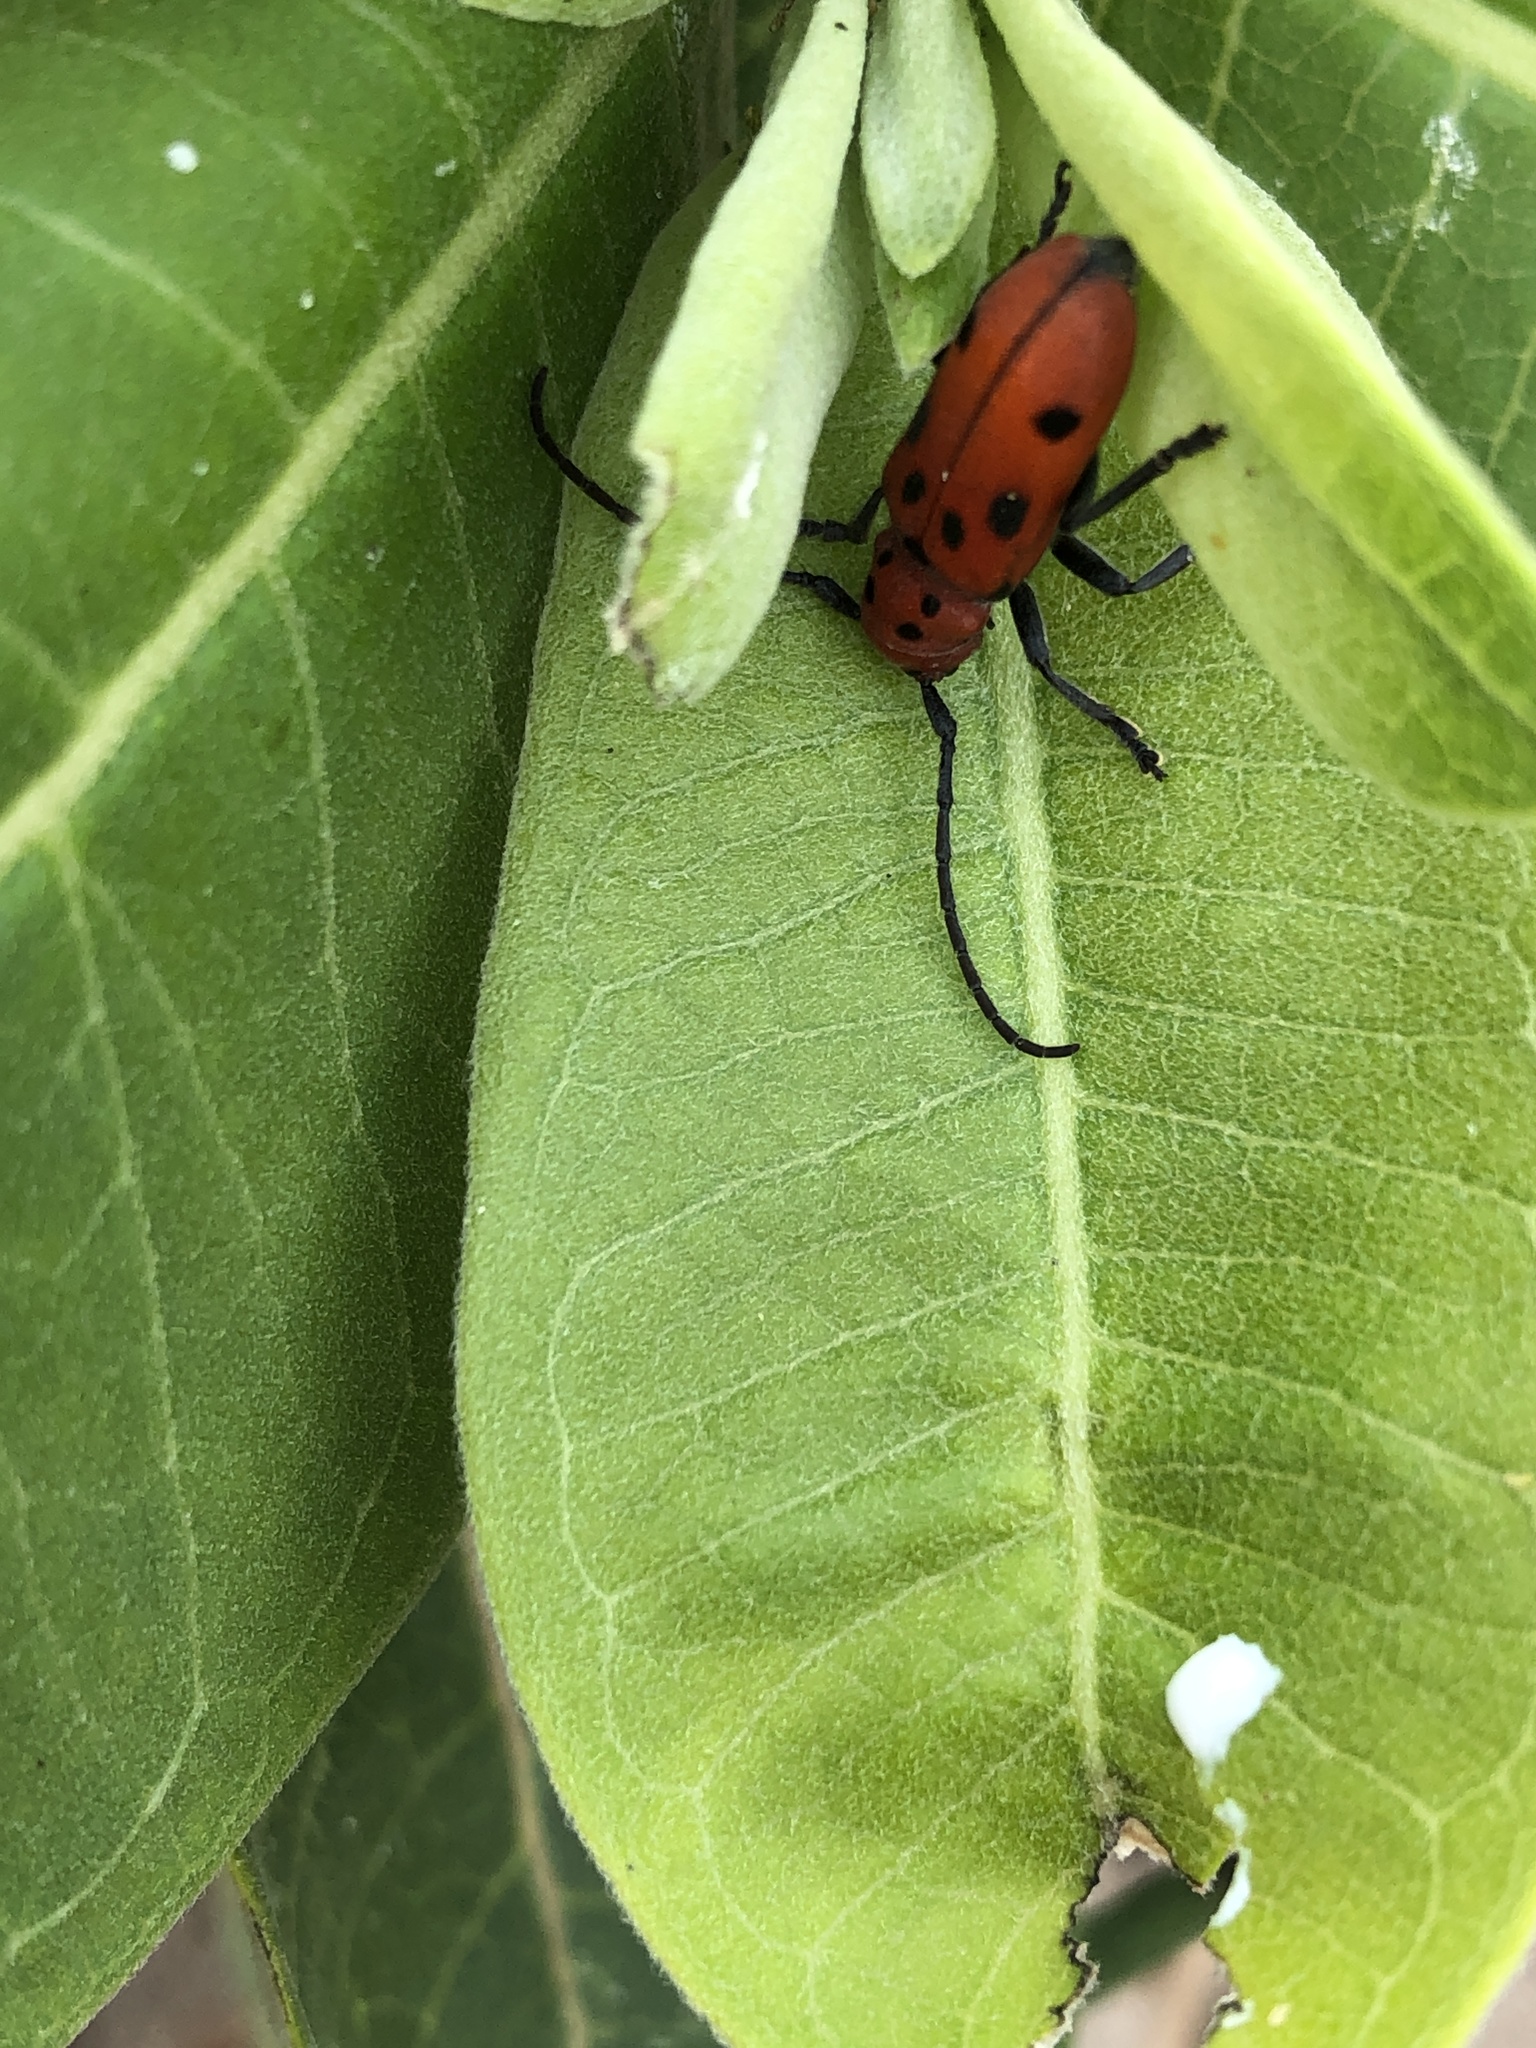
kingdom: Animalia
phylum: Arthropoda
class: Insecta
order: Coleoptera
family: Cerambycidae
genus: Tetraopes
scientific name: Tetraopes tetrophthalmus
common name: Red milkweed beetle
